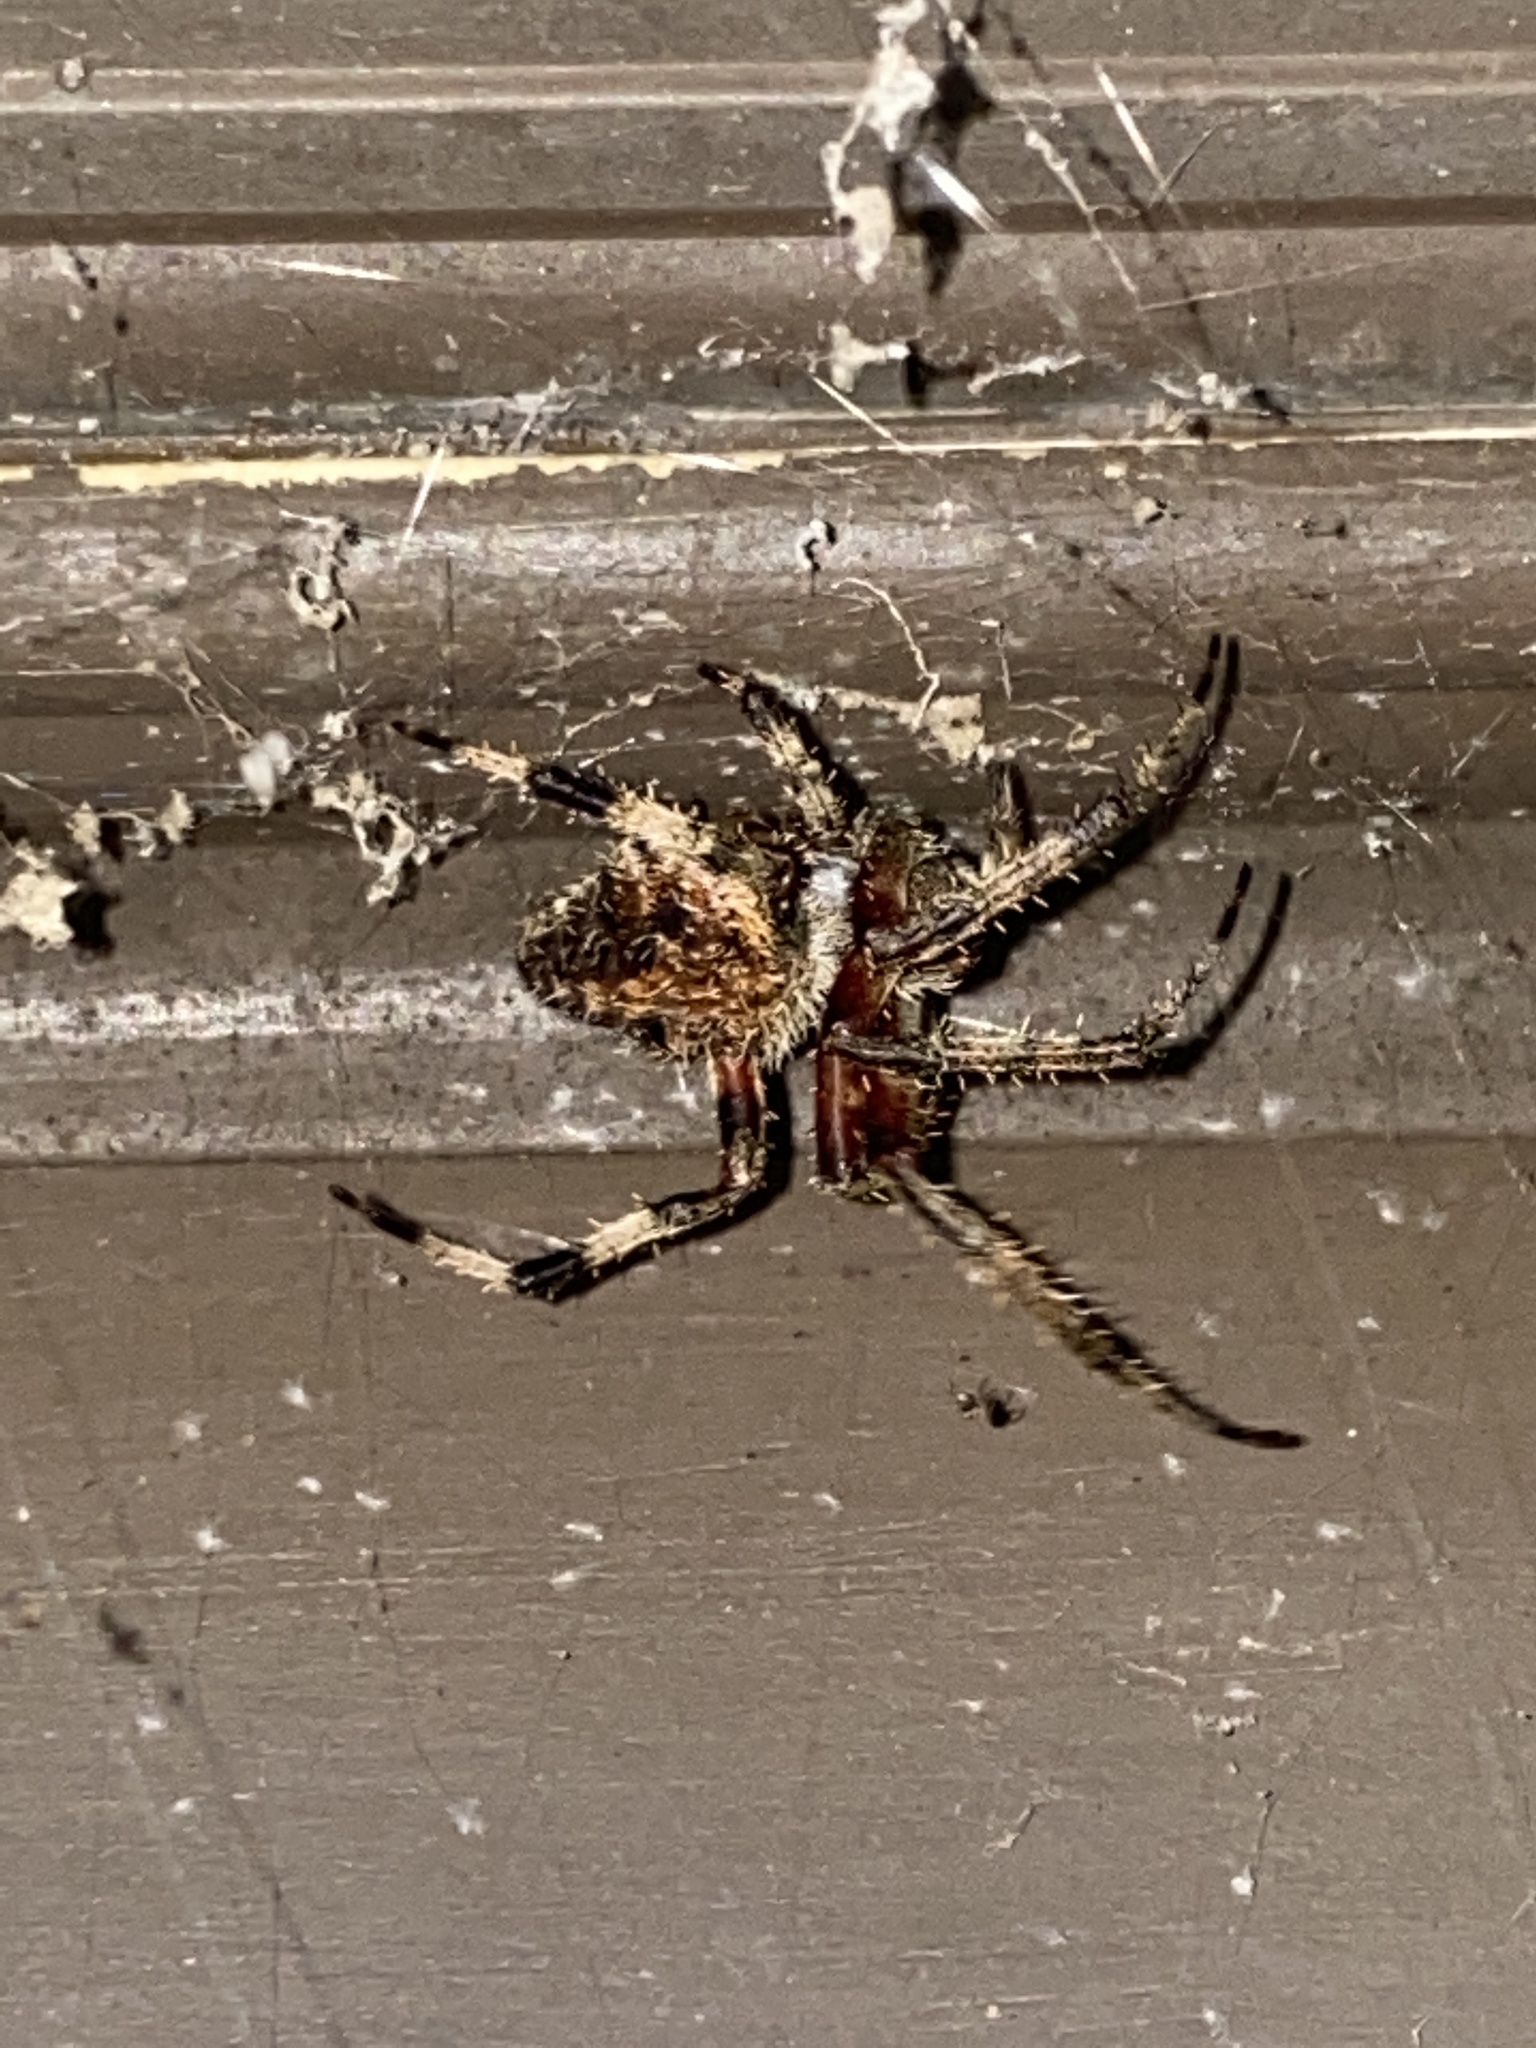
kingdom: Animalia
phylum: Arthropoda
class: Arachnida
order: Araneae
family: Araneidae
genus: Neoscona
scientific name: Neoscona domiciliorum
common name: Red-femured spotted orbweaver
